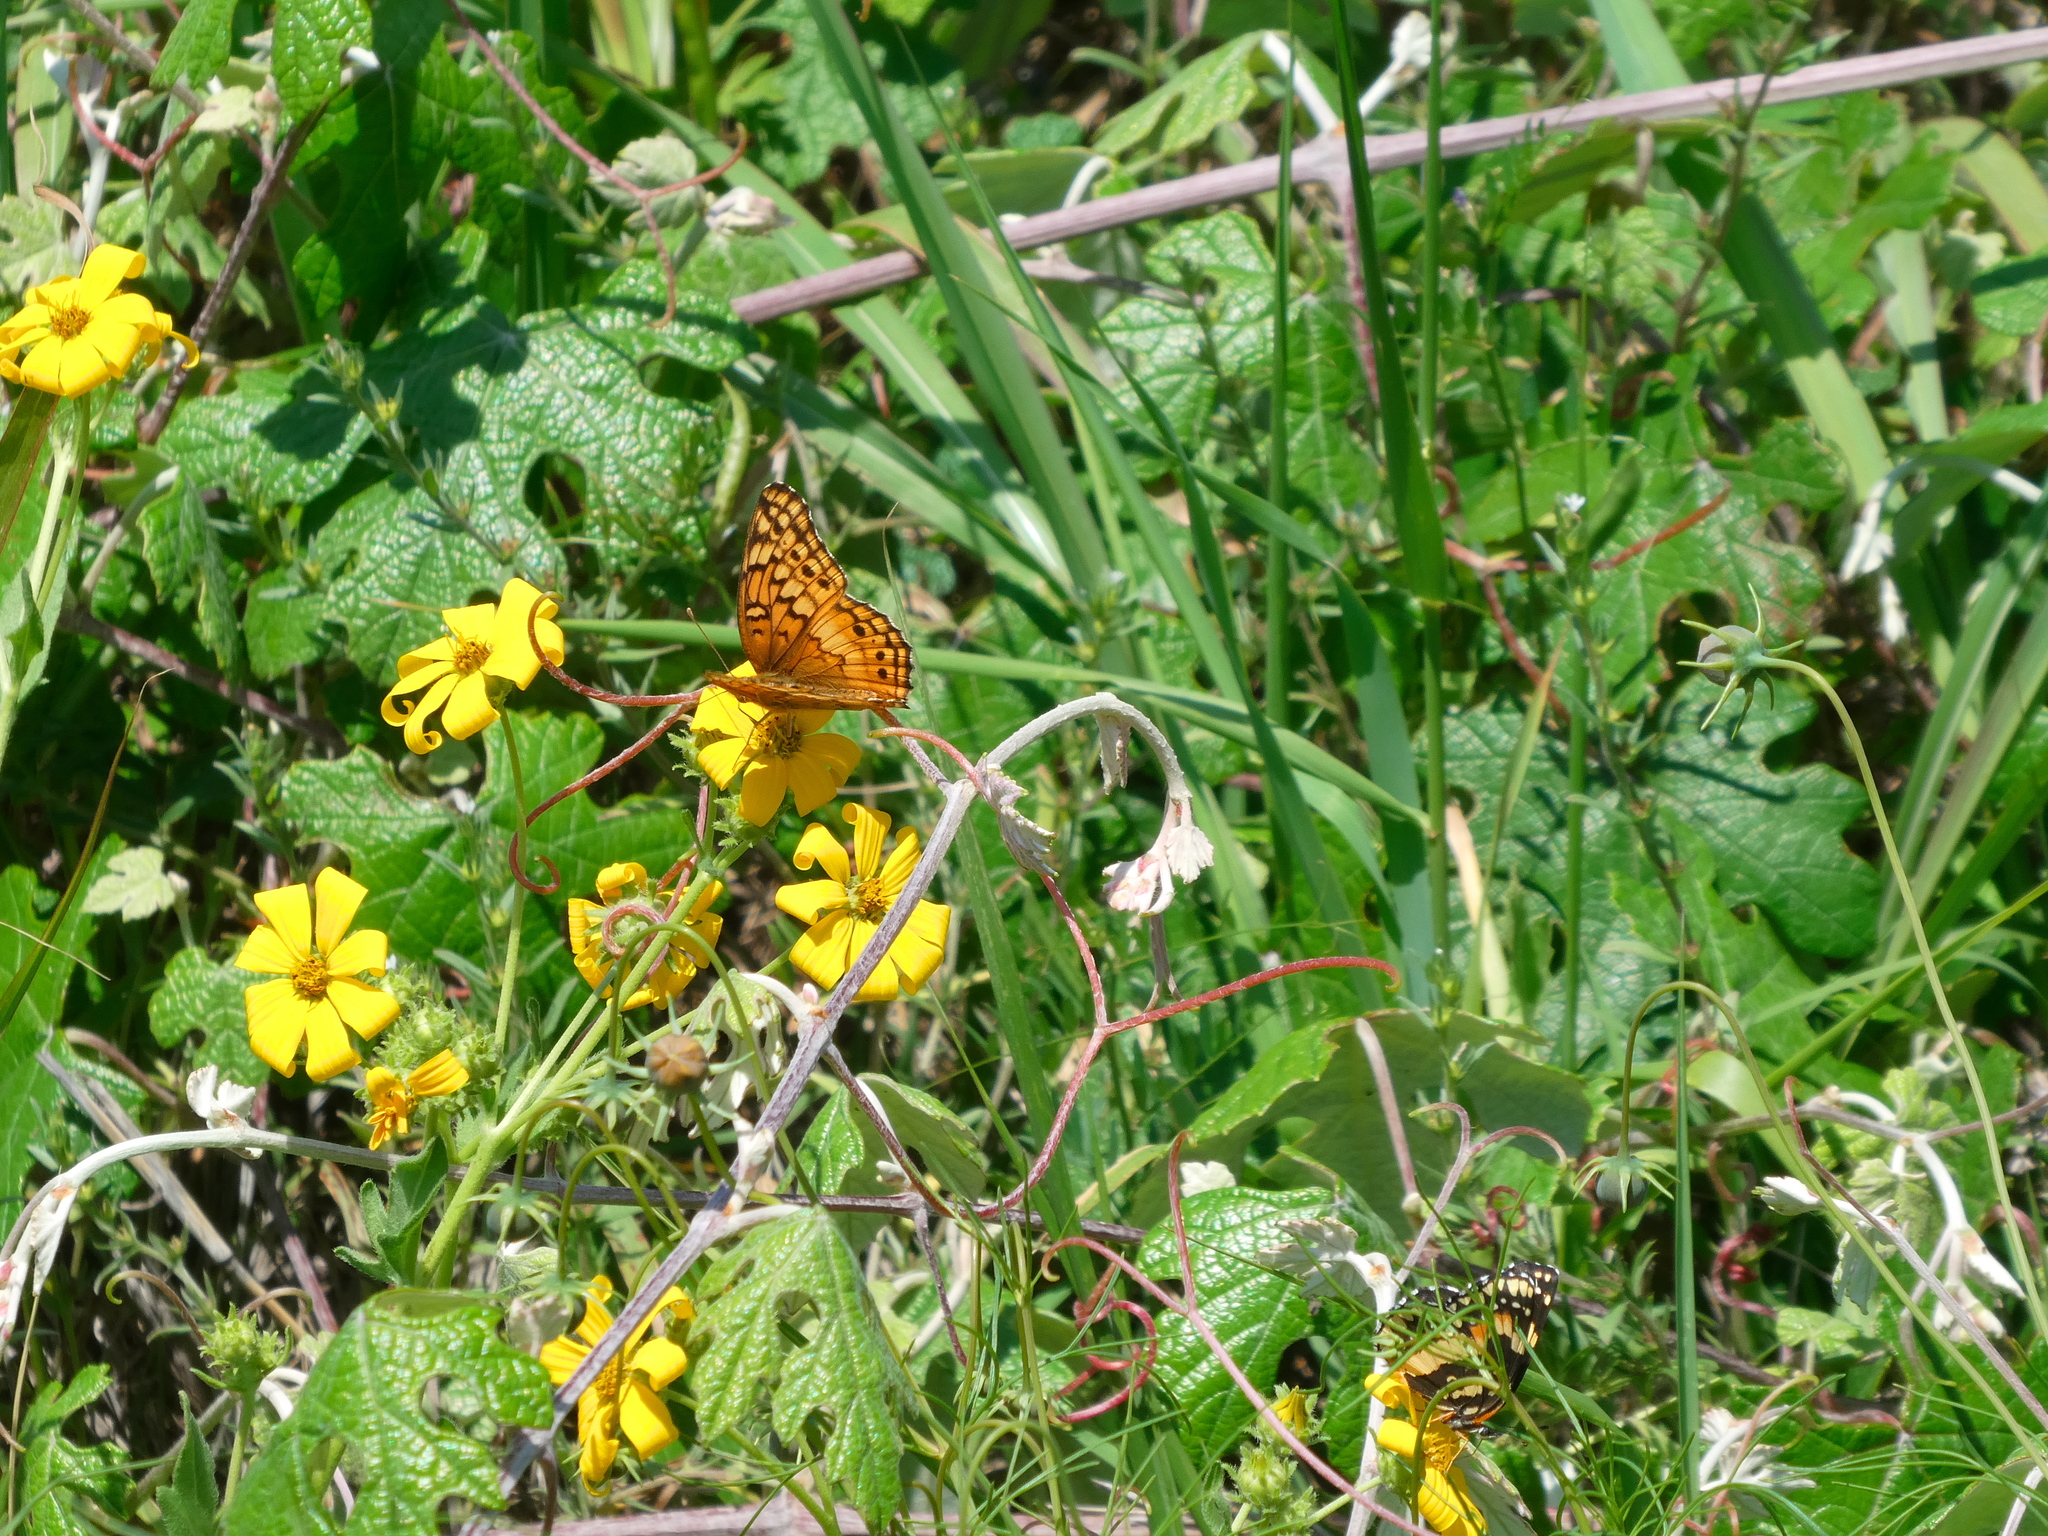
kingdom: Animalia
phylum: Arthropoda
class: Insecta
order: Lepidoptera
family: Nymphalidae
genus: Euptoieta
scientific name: Euptoieta claudia
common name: Variegated fritillary
